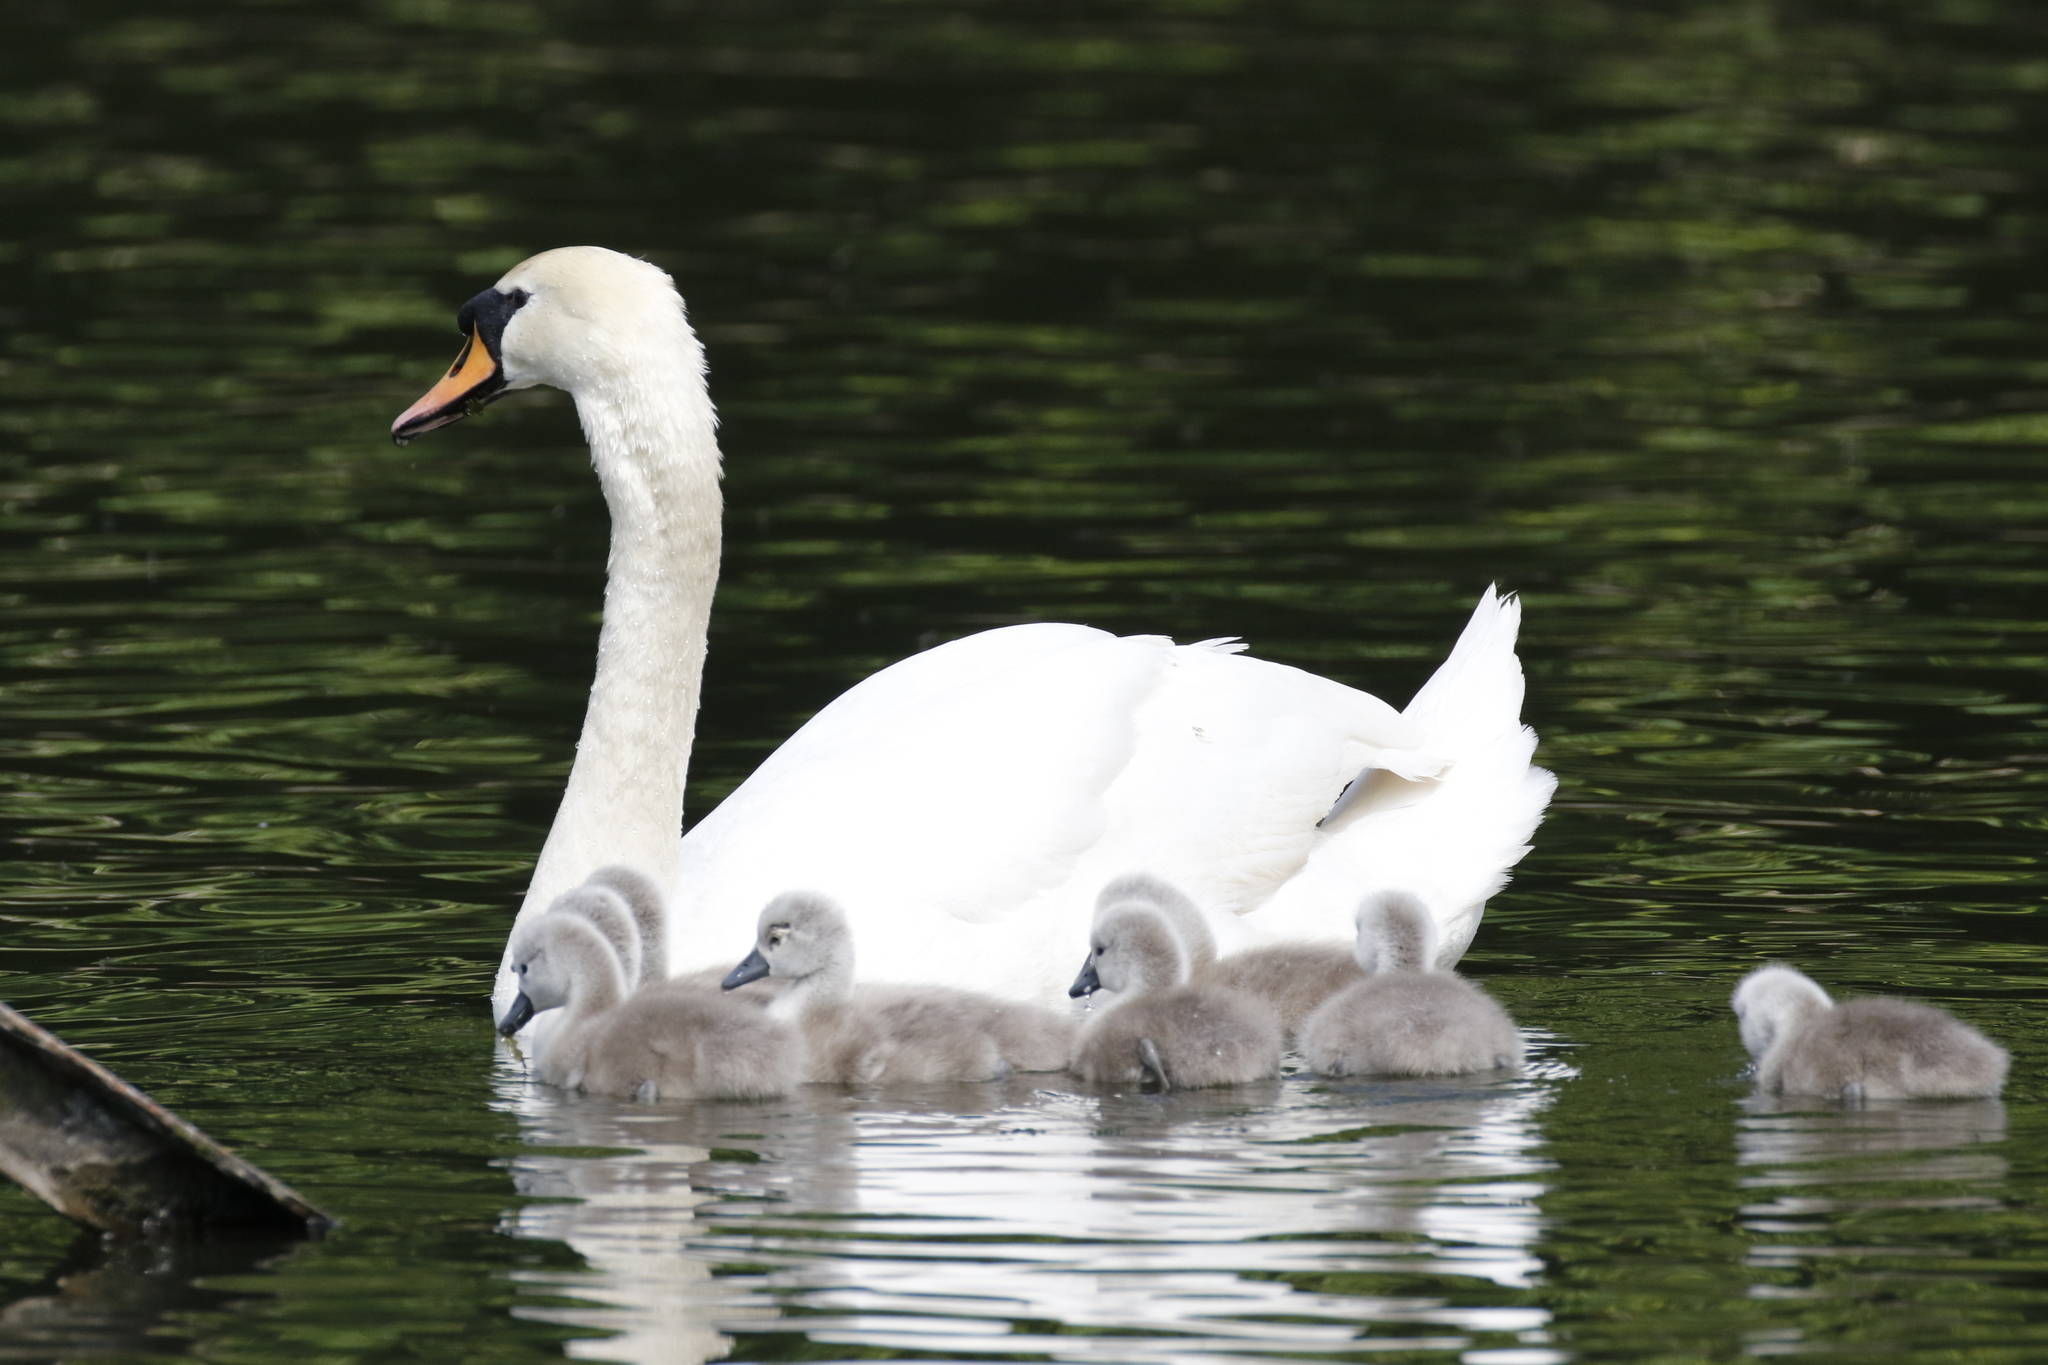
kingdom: Animalia
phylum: Chordata
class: Aves
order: Anseriformes
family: Anatidae
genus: Cygnus
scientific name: Cygnus olor
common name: Mute swan
